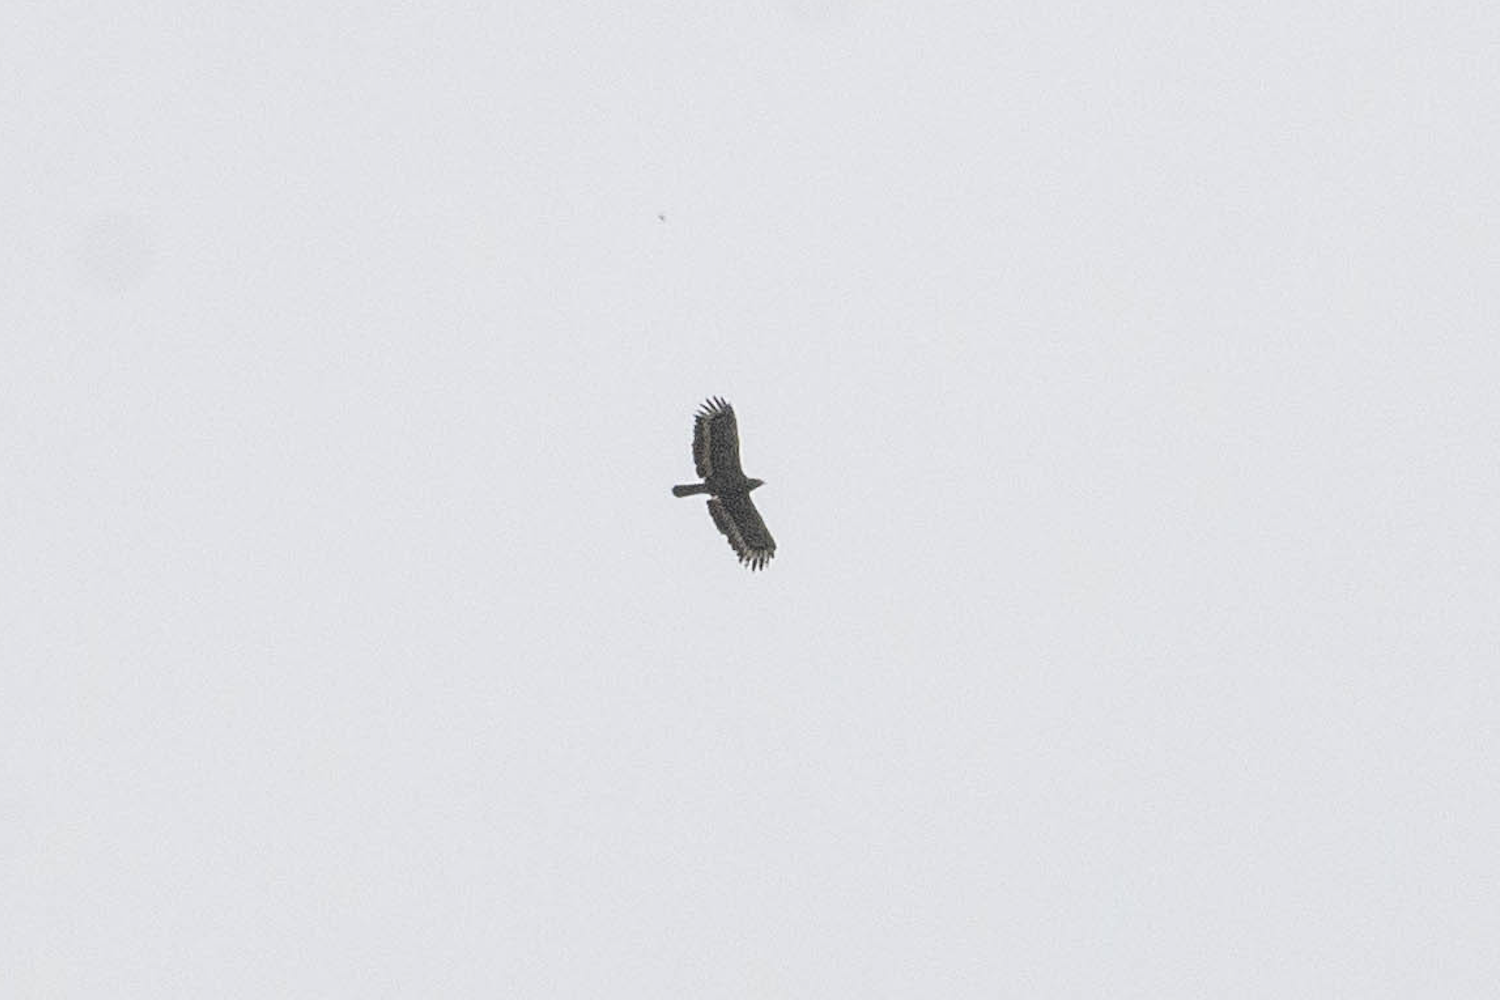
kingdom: Animalia
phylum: Chordata
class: Aves
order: Accipitriformes
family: Accipitridae
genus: Spilornis
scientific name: Spilornis cheela
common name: Crested serpent eagle
